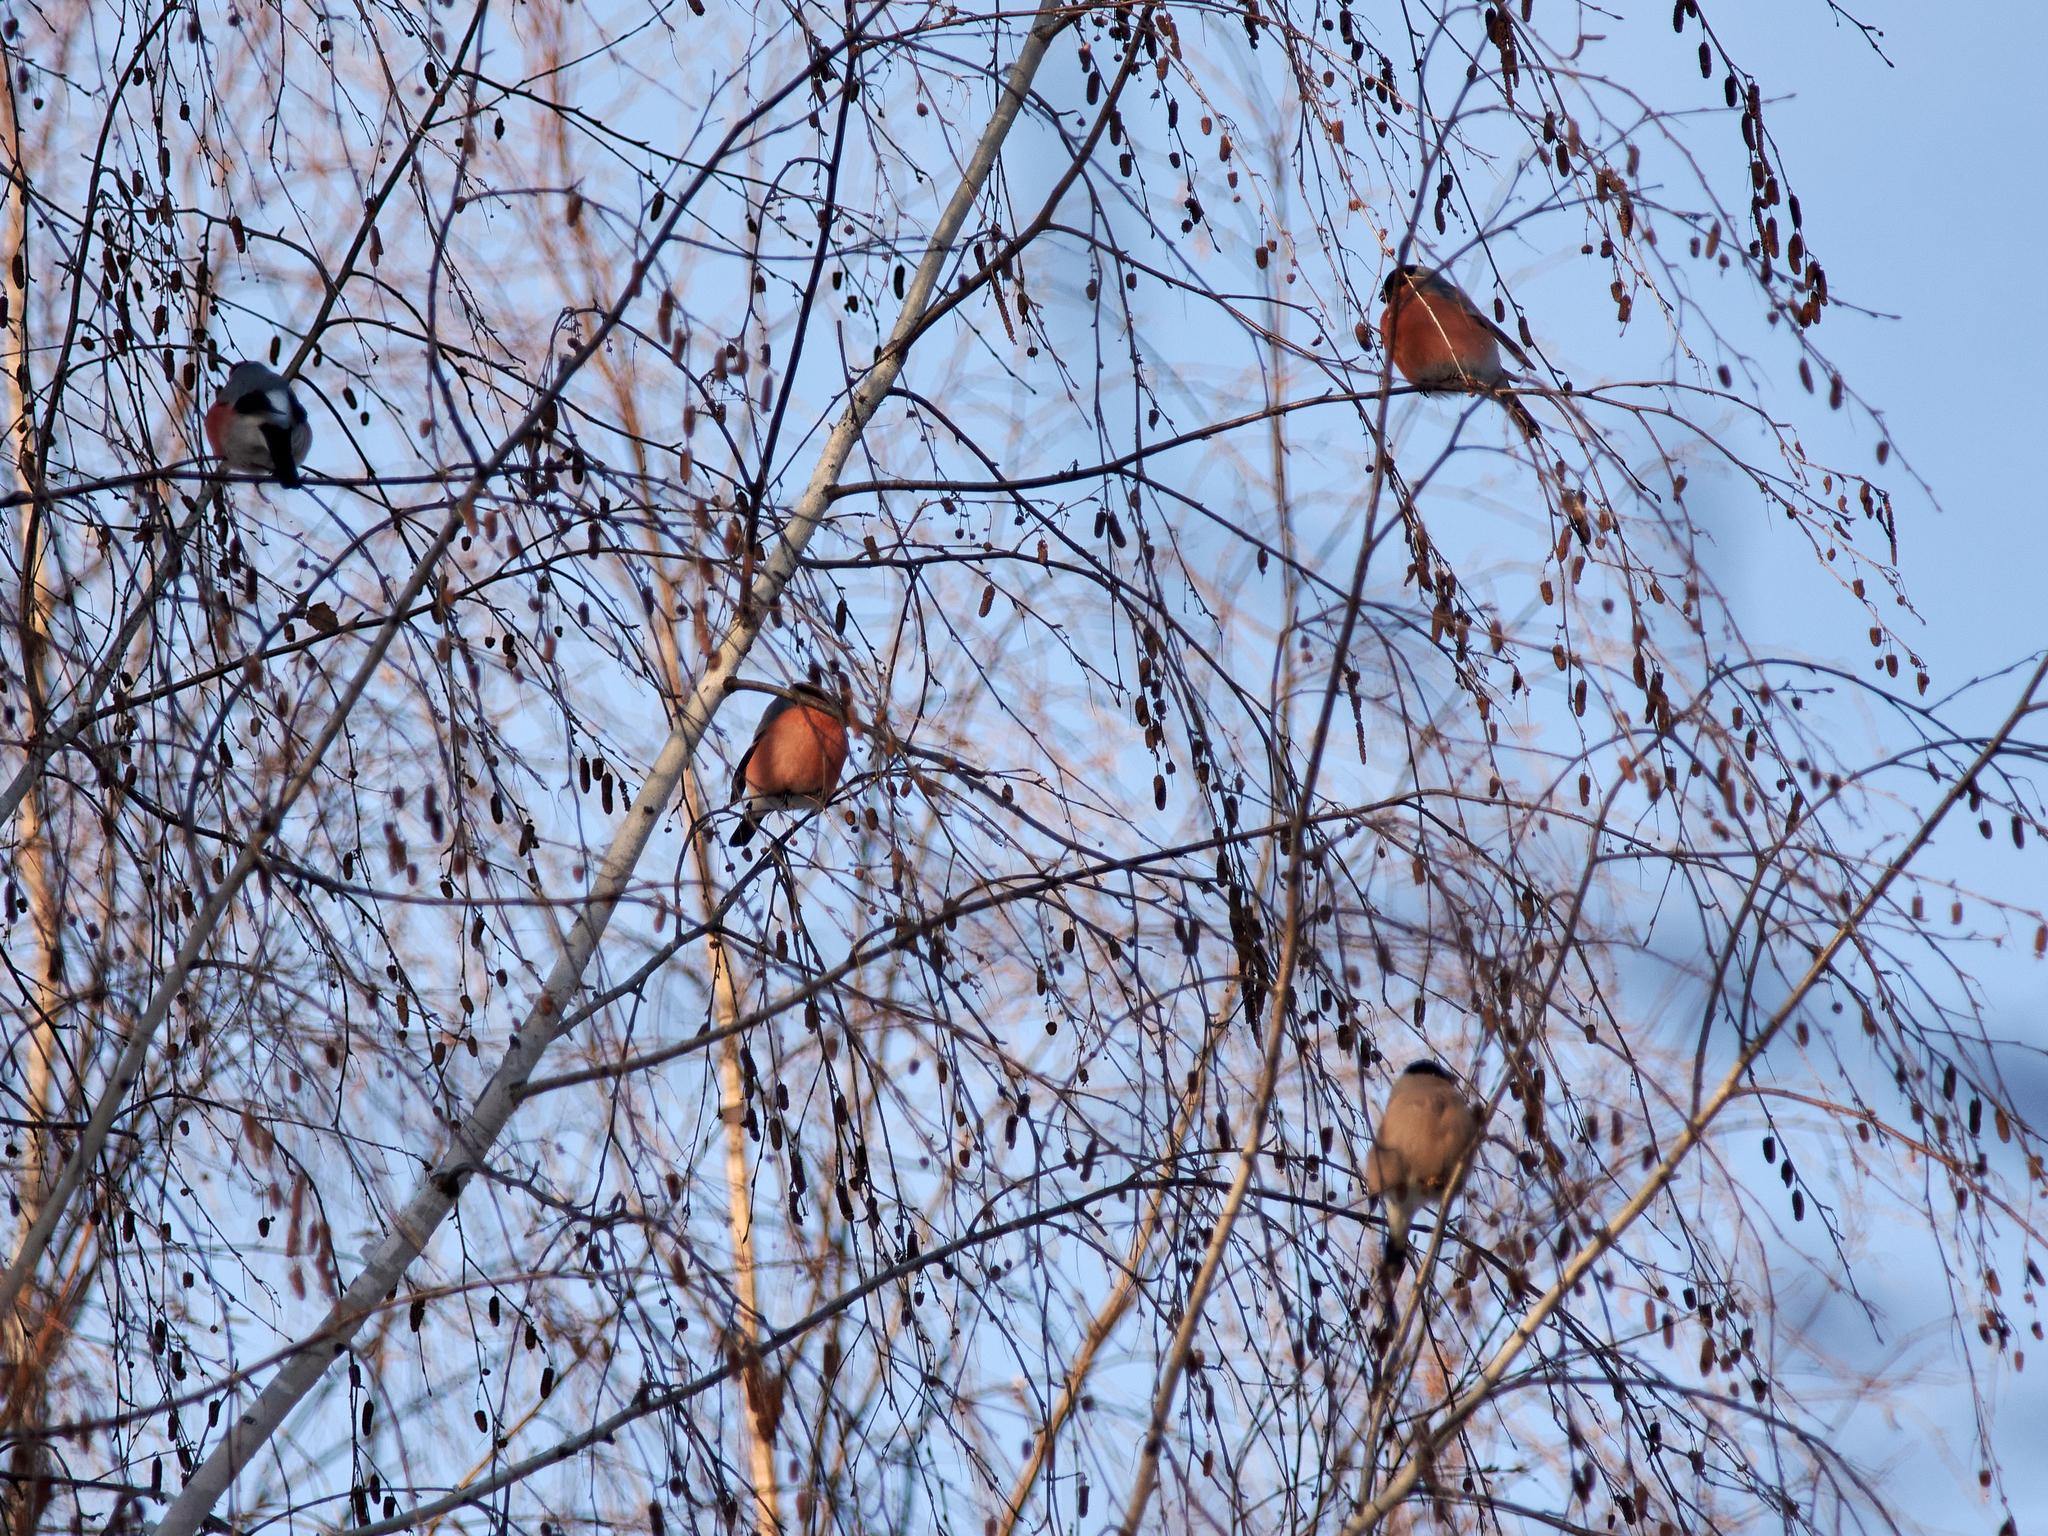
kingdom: Animalia
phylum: Chordata
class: Aves
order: Passeriformes
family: Fringillidae
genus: Pyrrhula
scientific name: Pyrrhula pyrrhula
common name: Eurasian bullfinch
